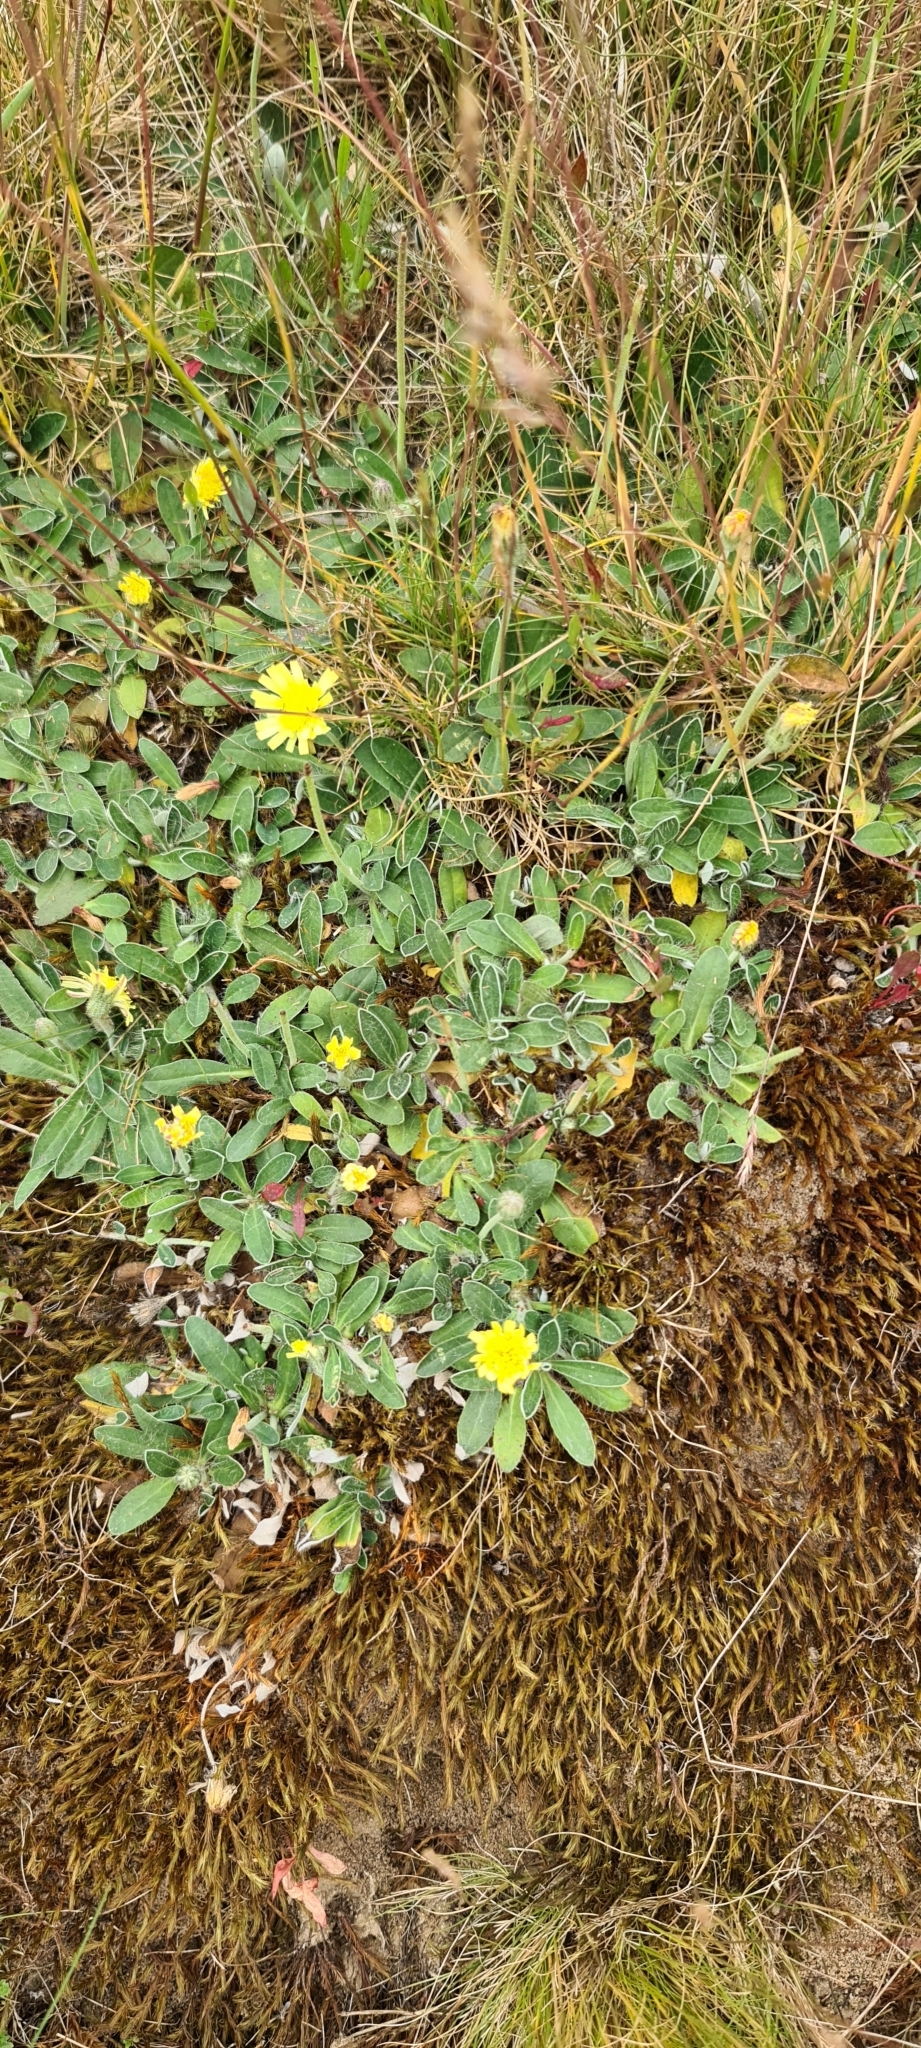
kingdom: Plantae
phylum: Tracheophyta
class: Magnoliopsida
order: Asterales
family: Asteraceae
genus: Pilosella
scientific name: Pilosella officinarum
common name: Mouse-ear hawkweed
